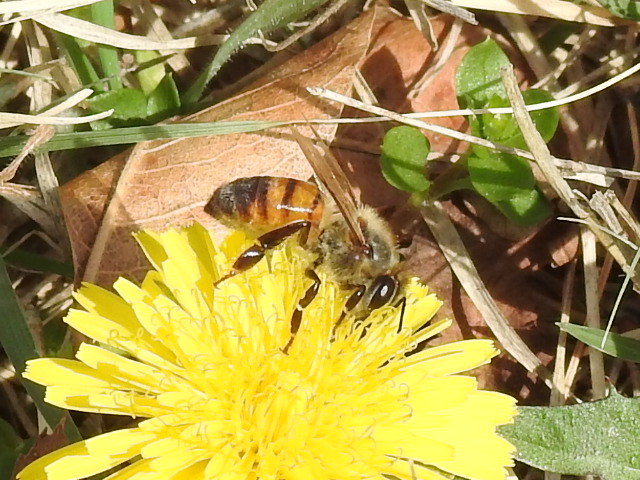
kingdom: Animalia
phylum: Arthropoda
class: Insecta
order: Hymenoptera
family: Apidae
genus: Apis
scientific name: Apis mellifera
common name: Honey bee
